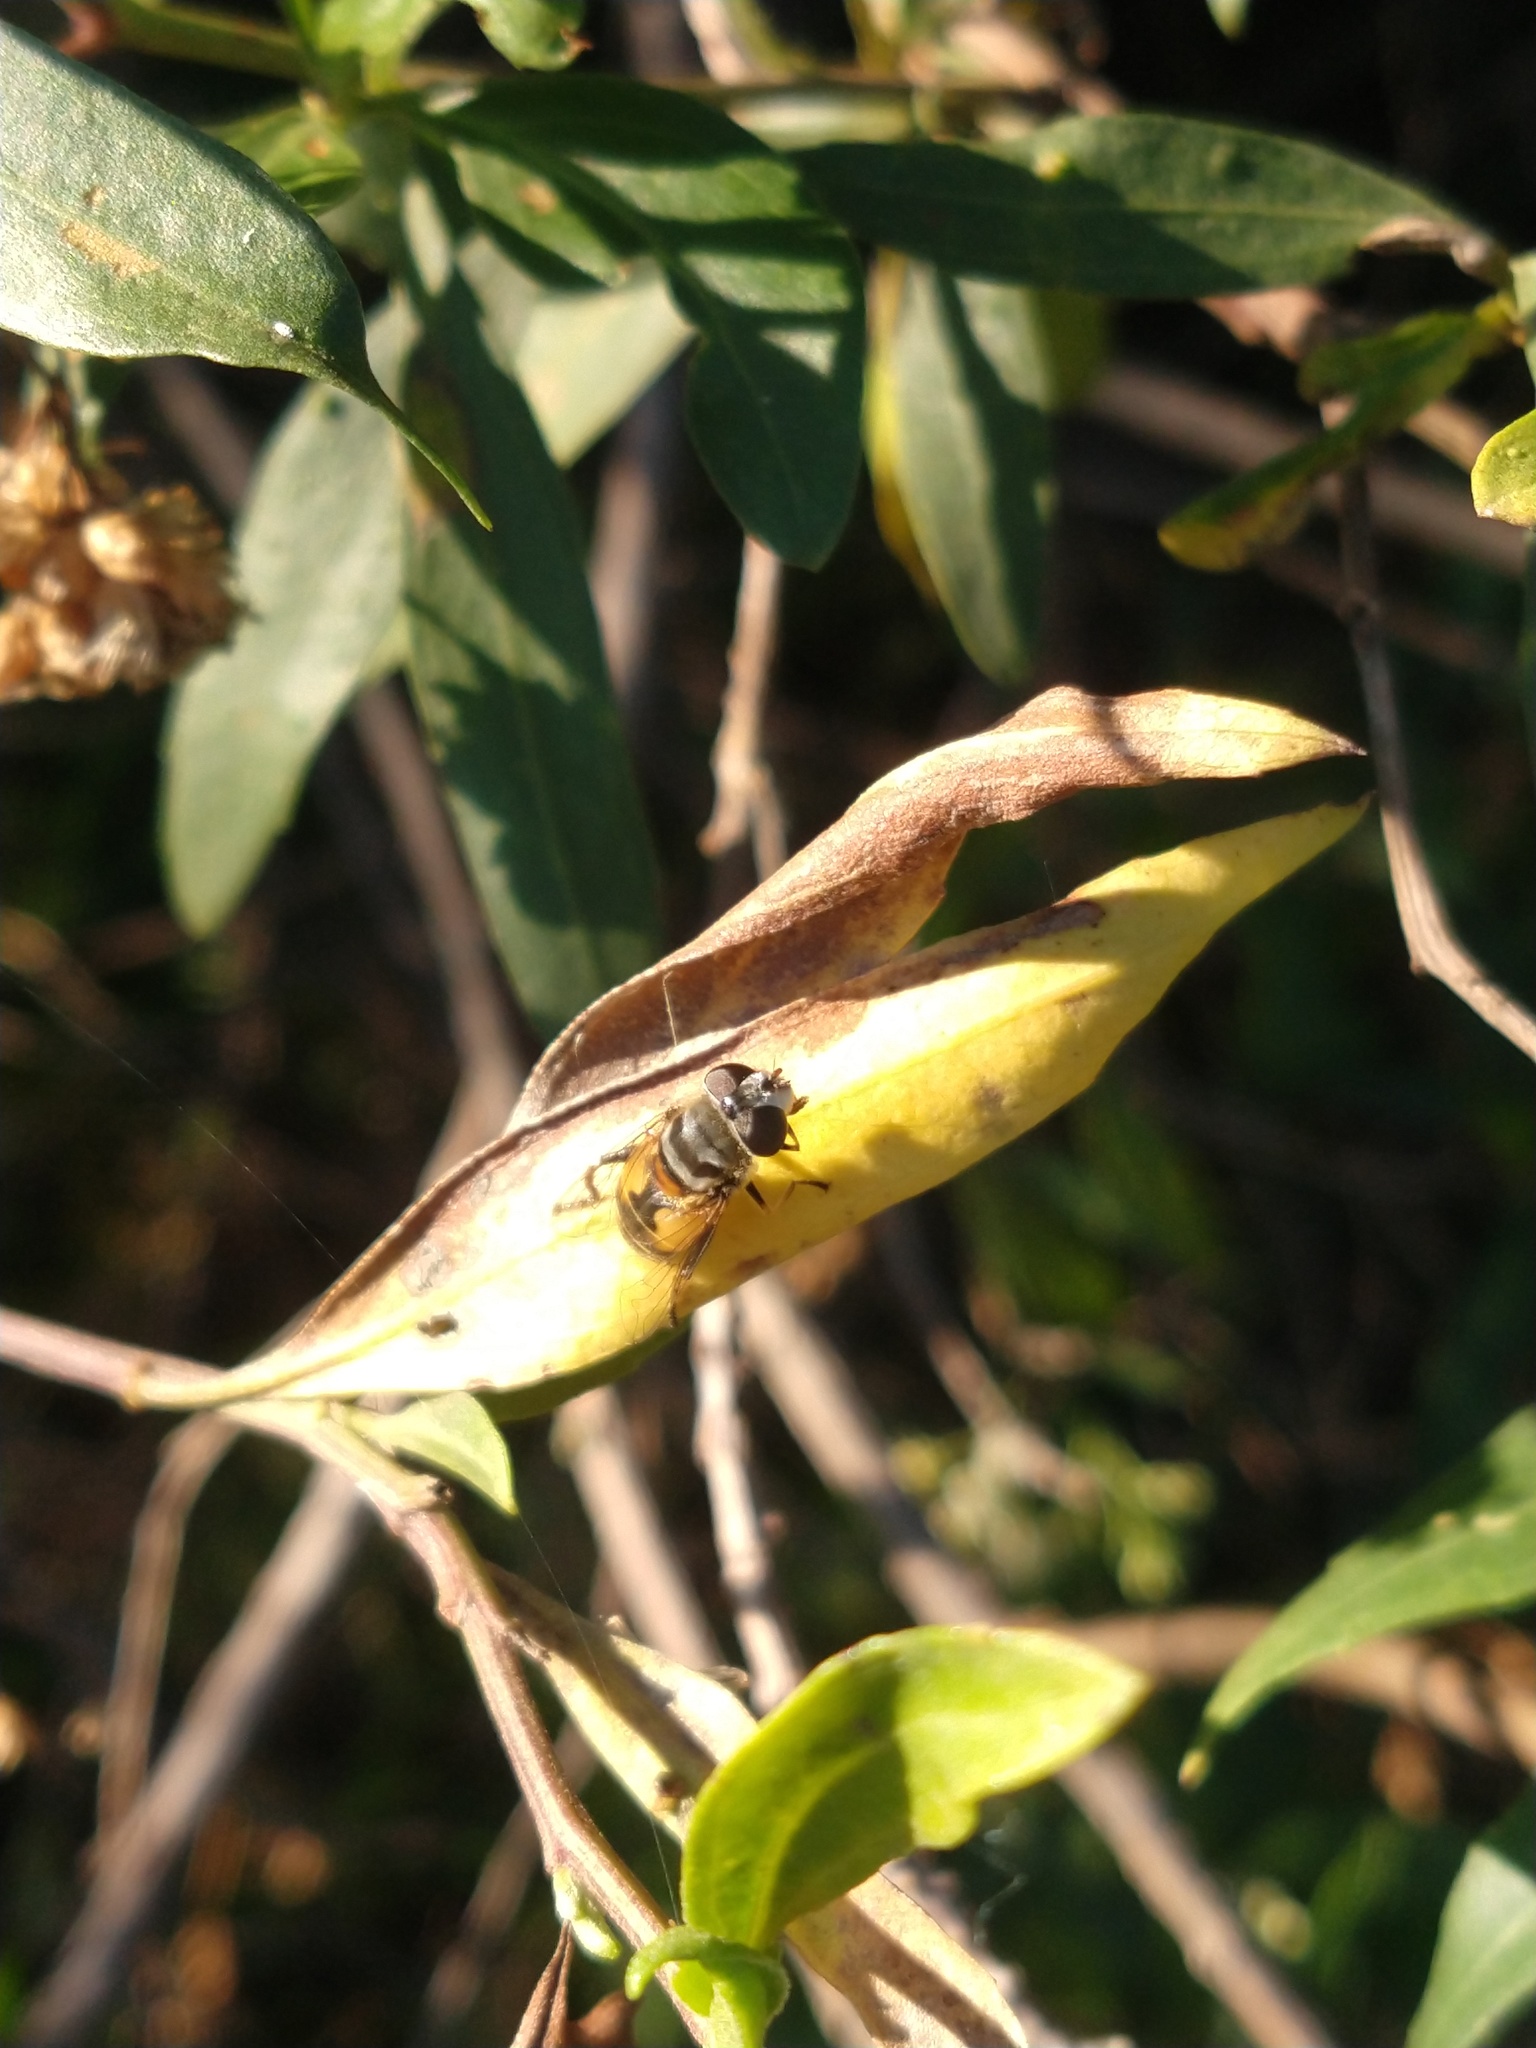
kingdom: Animalia
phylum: Arthropoda
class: Insecta
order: Diptera
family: Syrphidae
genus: Palpada
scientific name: Palpada
